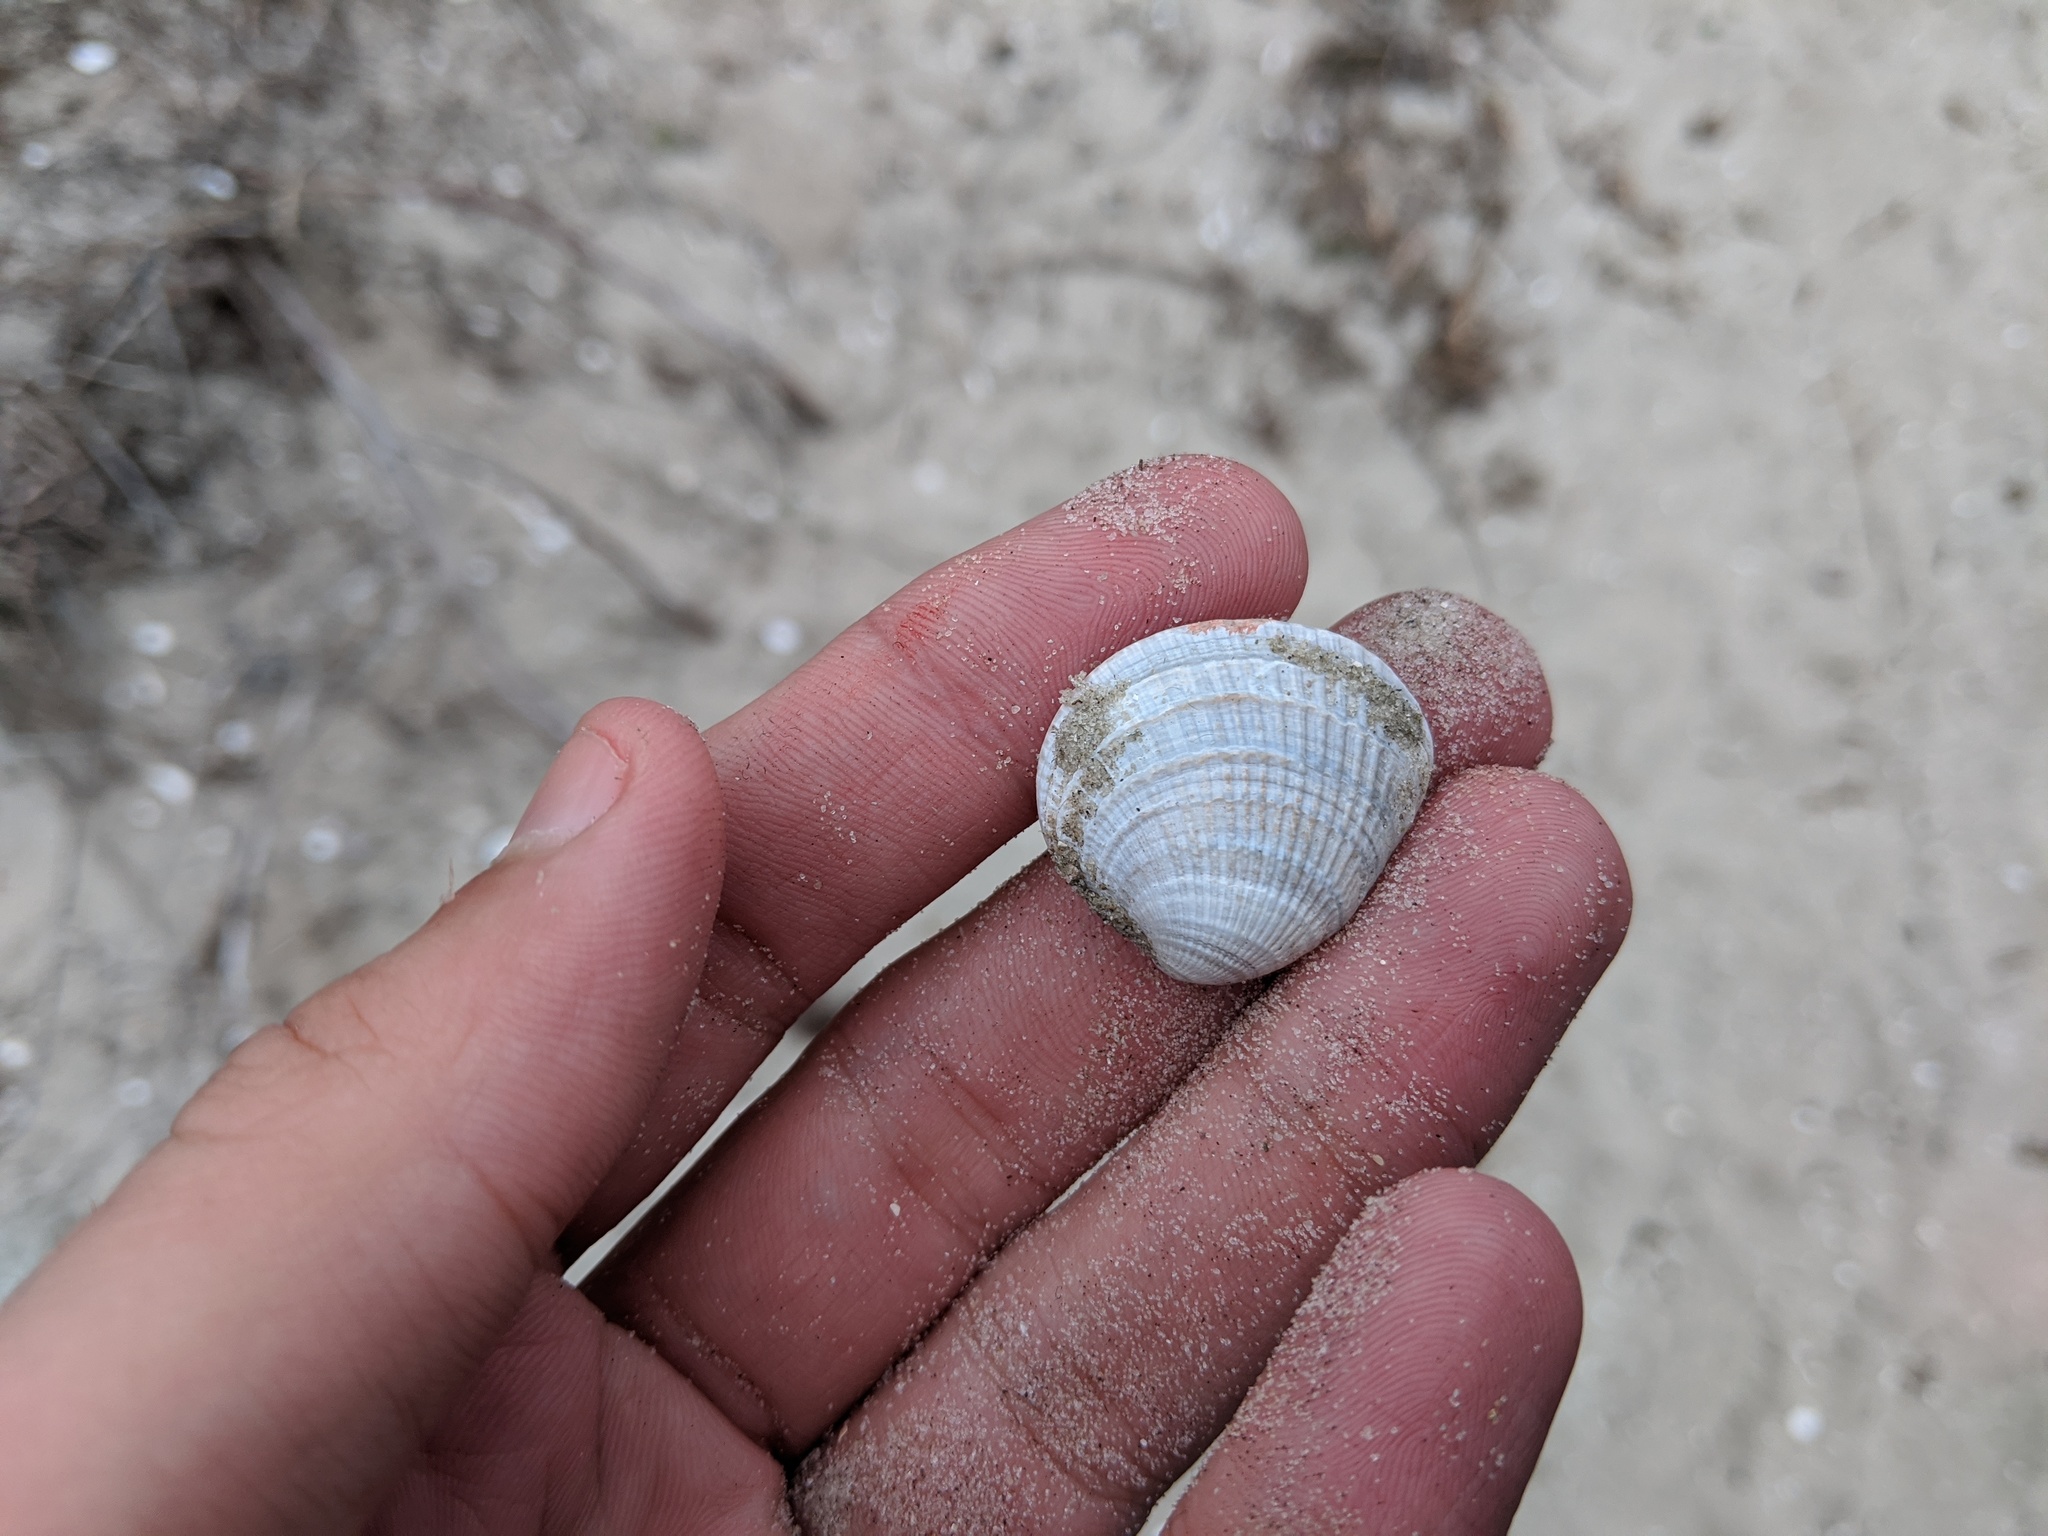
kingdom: Animalia
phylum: Mollusca
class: Bivalvia
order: Venerida
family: Veneridae
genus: Chione
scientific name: Chione elevata
